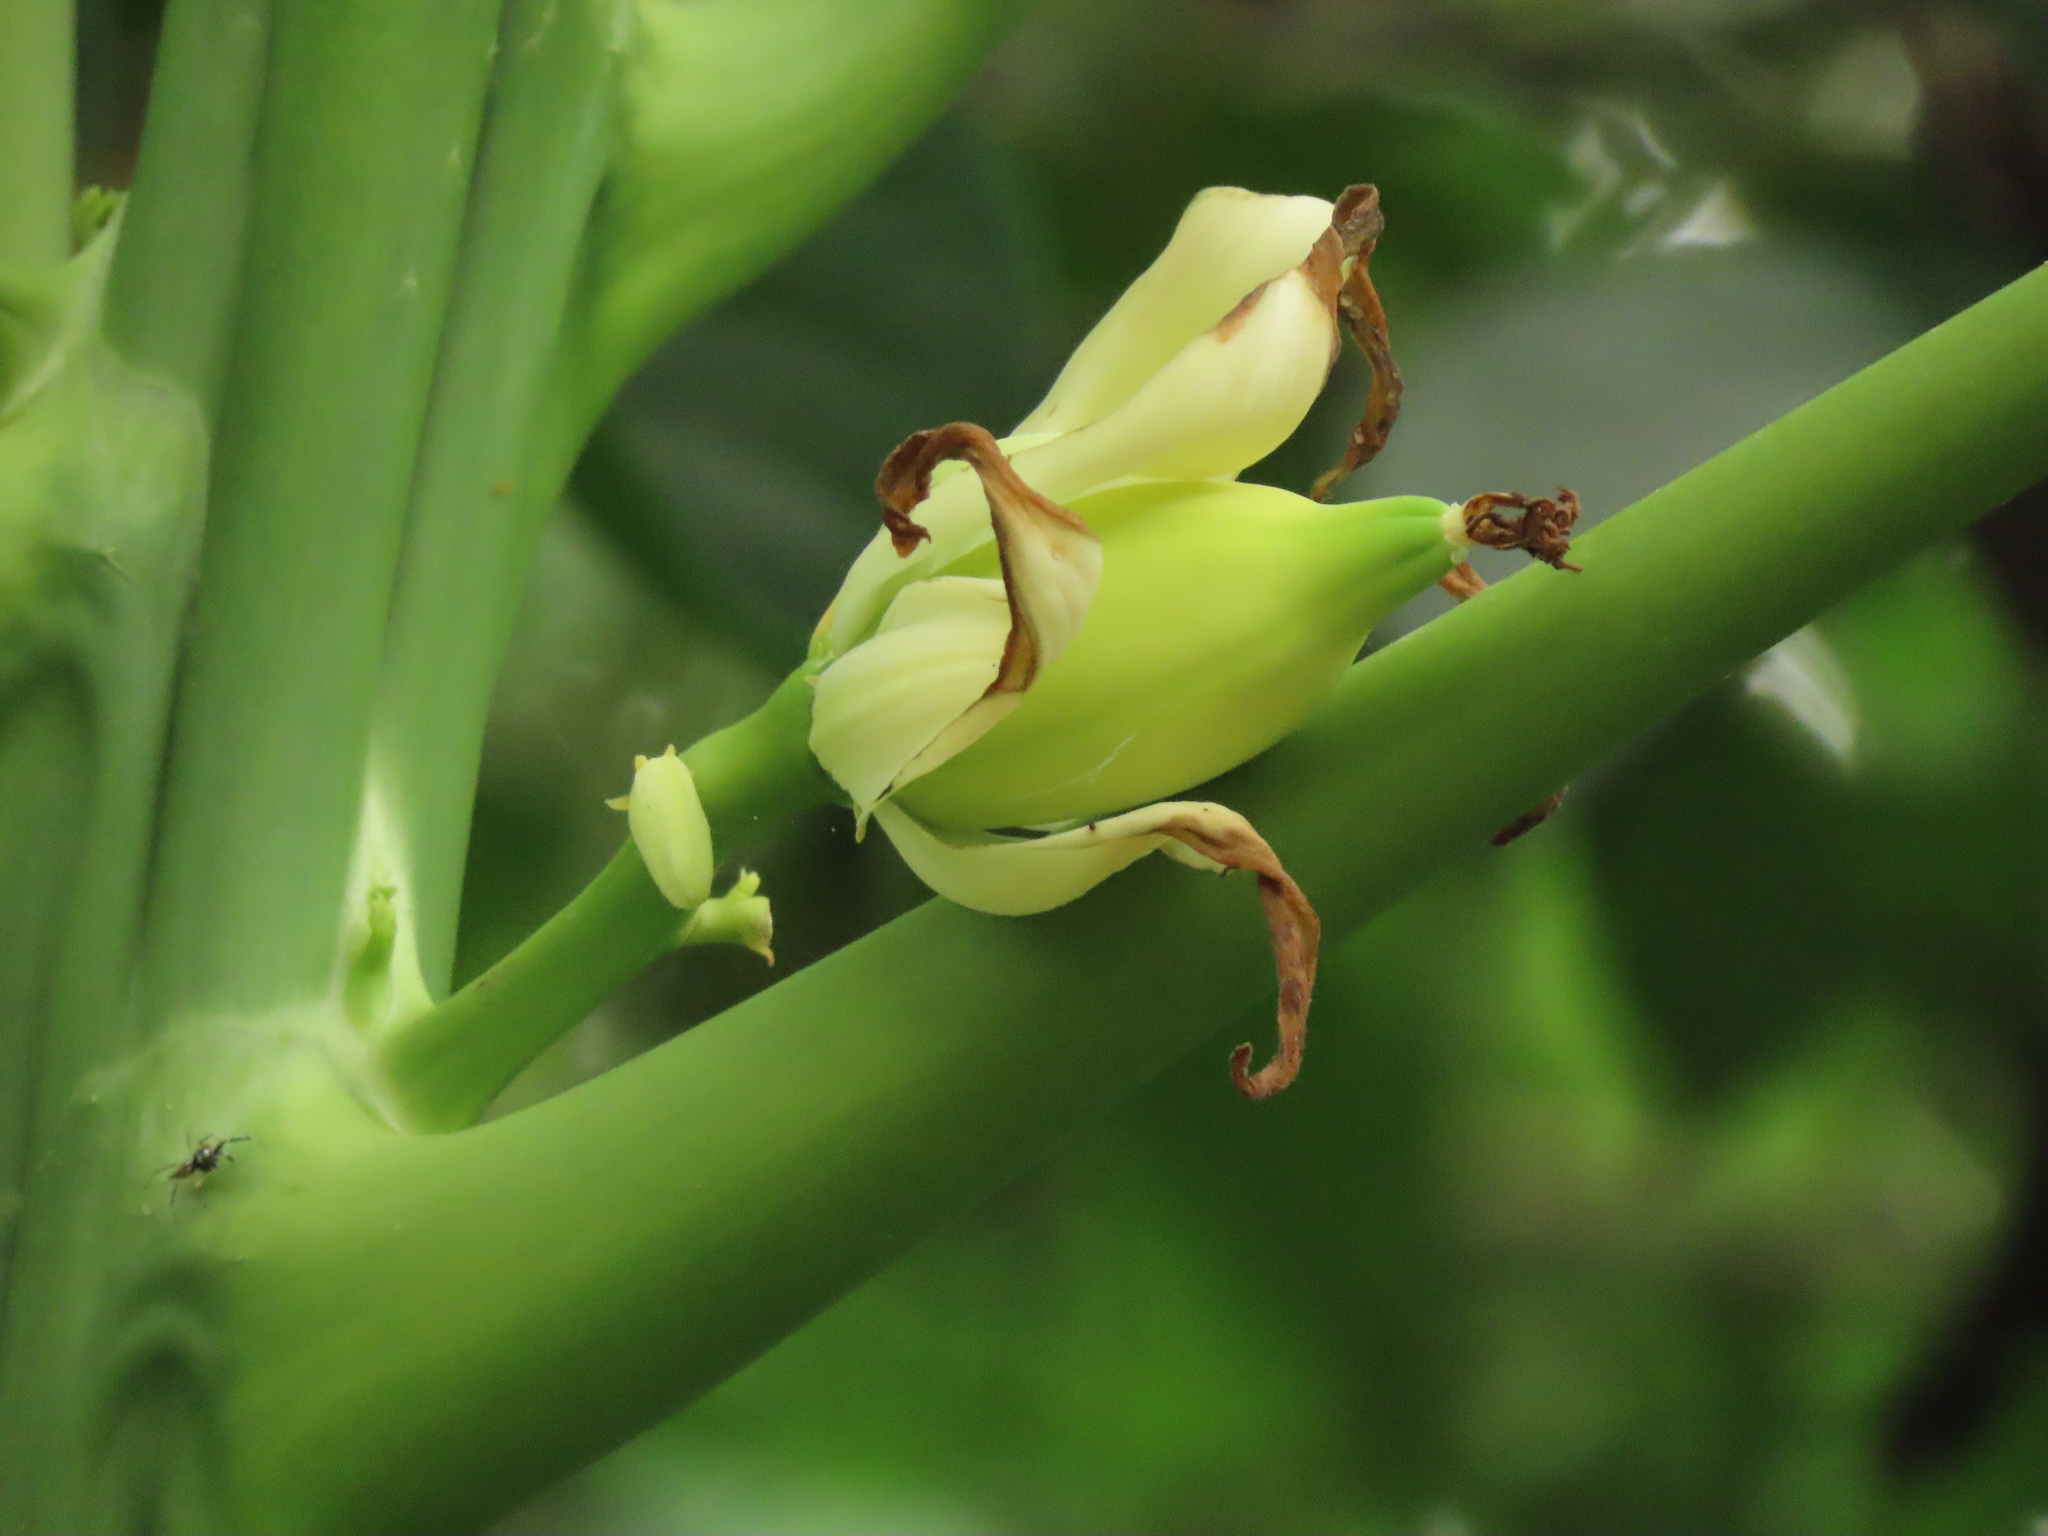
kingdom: Plantae
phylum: Tracheophyta
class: Magnoliopsida
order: Brassicales
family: Caricaceae
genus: Carica
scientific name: Carica papaya
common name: Papaya
